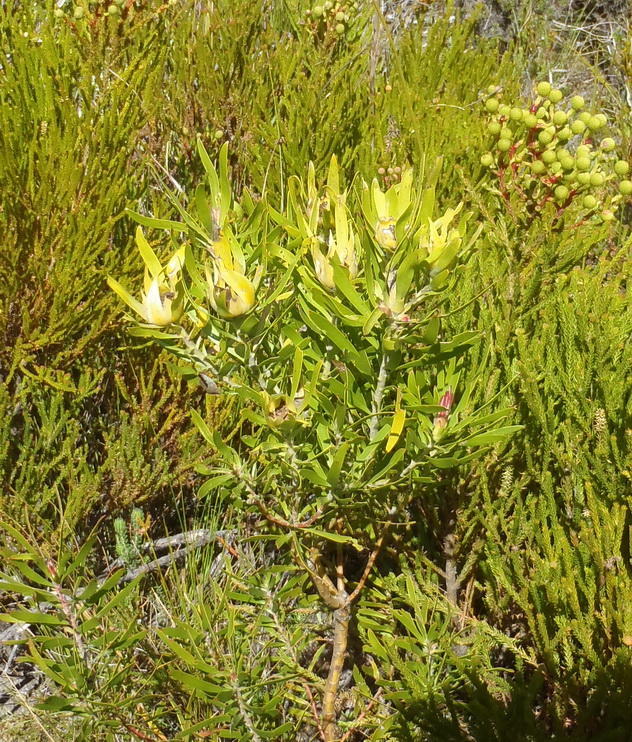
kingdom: Plantae
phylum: Tracheophyta
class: Magnoliopsida
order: Proteales
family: Proteaceae
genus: Leucadendron
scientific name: Leucadendron eucalyptifolium
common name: Gum-leaved conebush
